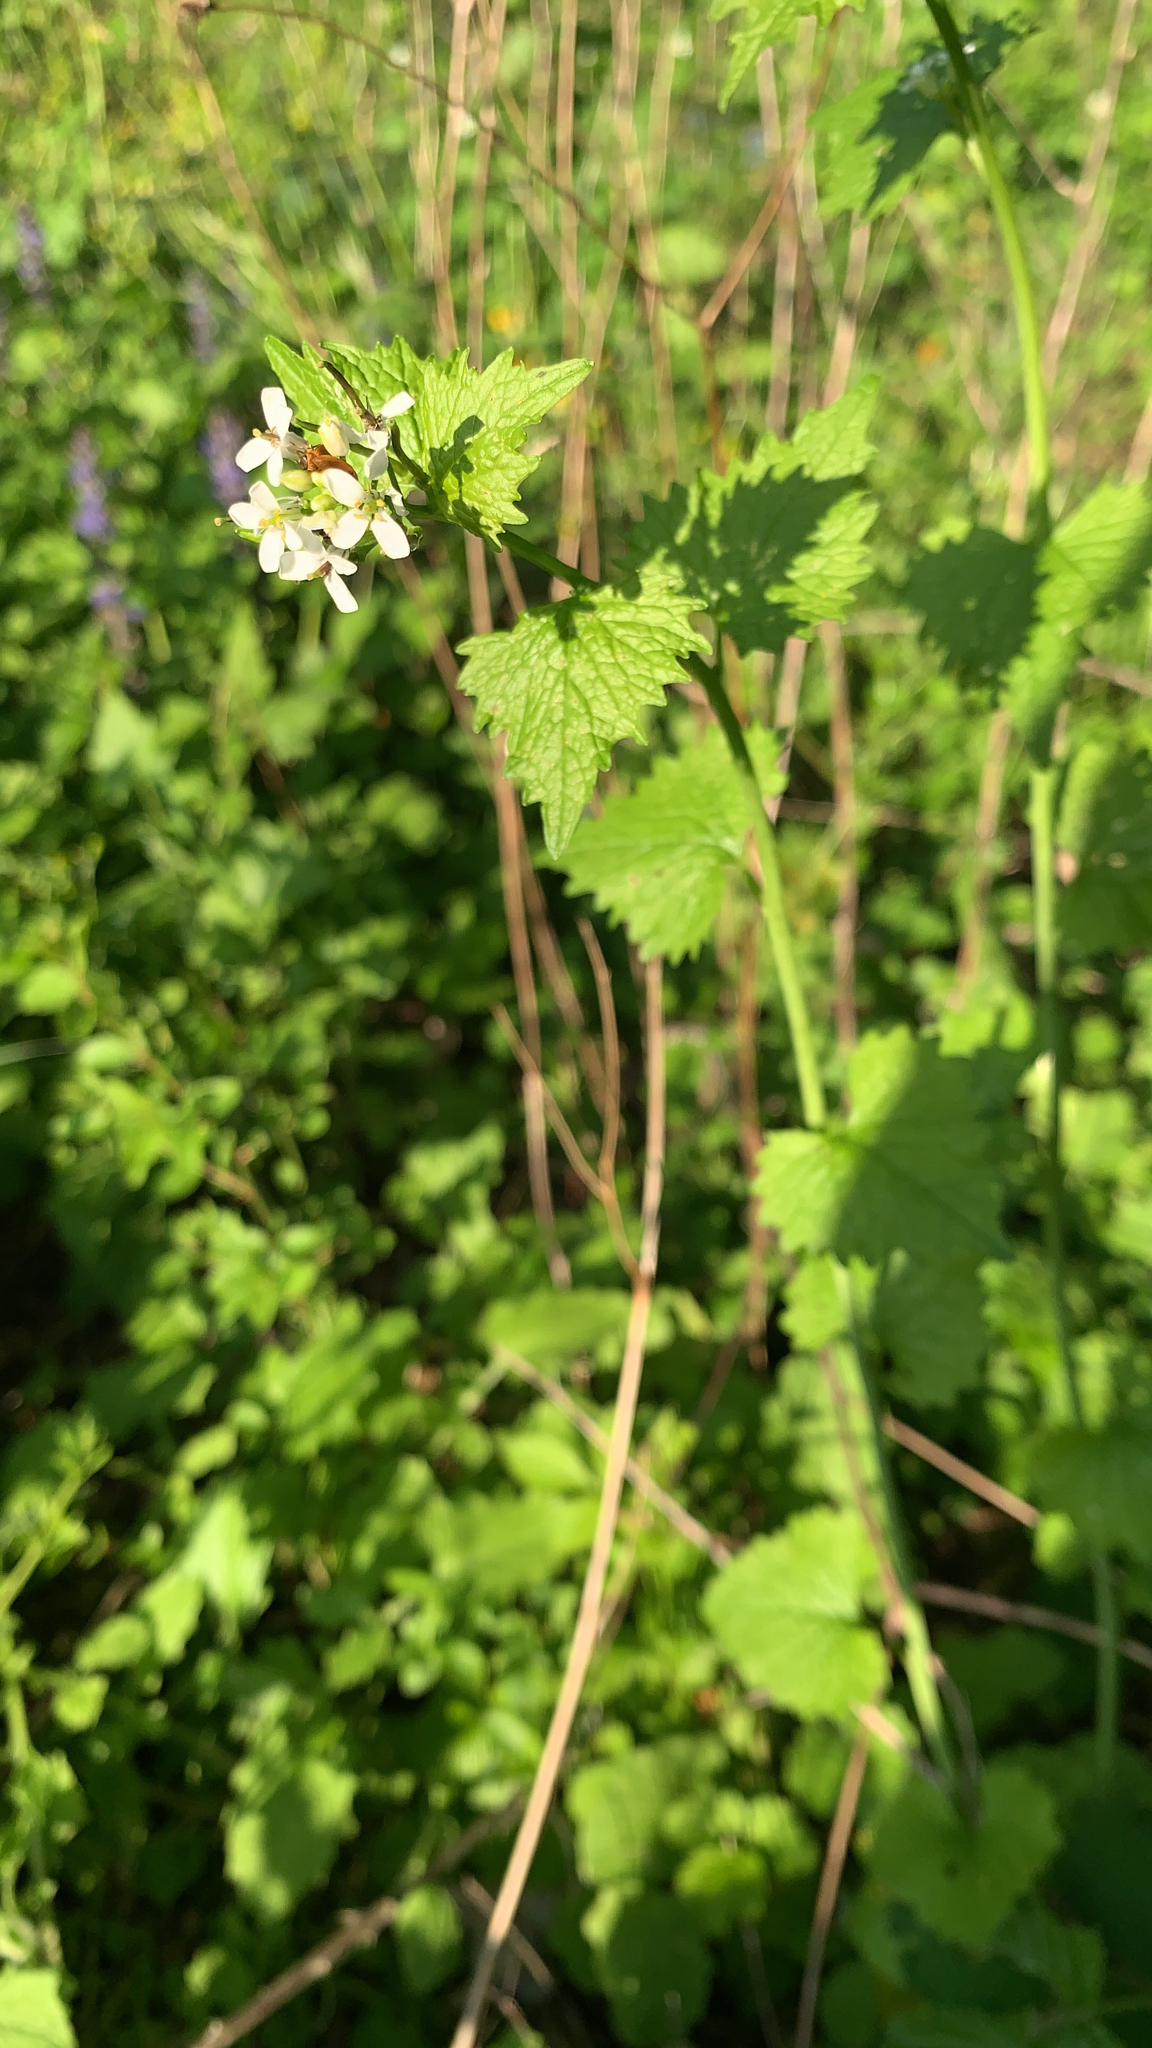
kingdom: Plantae
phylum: Tracheophyta
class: Magnoliopsida
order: Brassicales
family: Brassicaceae
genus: Alliaria
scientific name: Alliaria petiolata
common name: Garlic mustard
